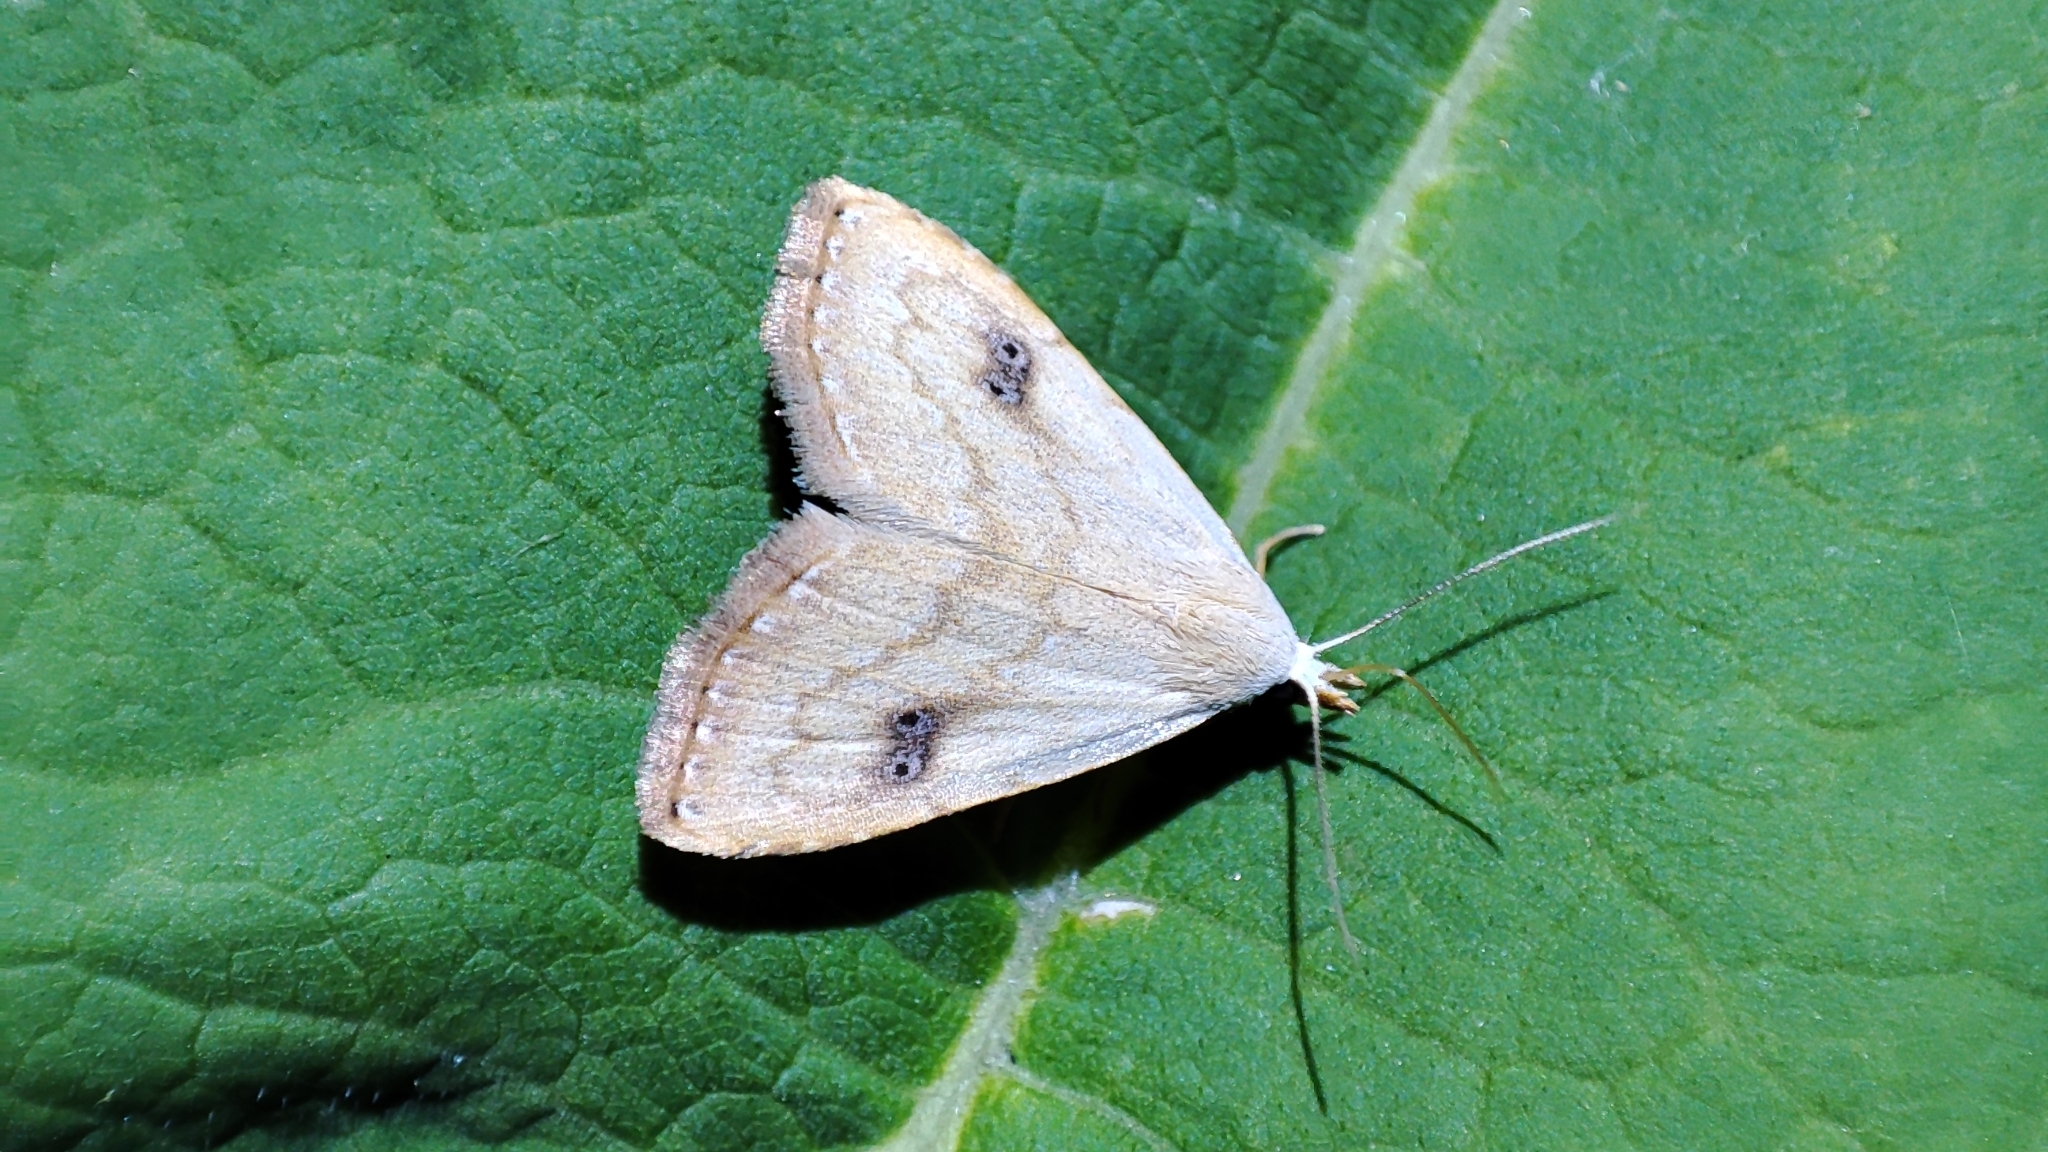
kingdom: Animalia
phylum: Arthropoda
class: Insecta
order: Lepidoptera
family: Erebidae
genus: Rivula
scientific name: Rivula sericealis
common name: Straw dot
